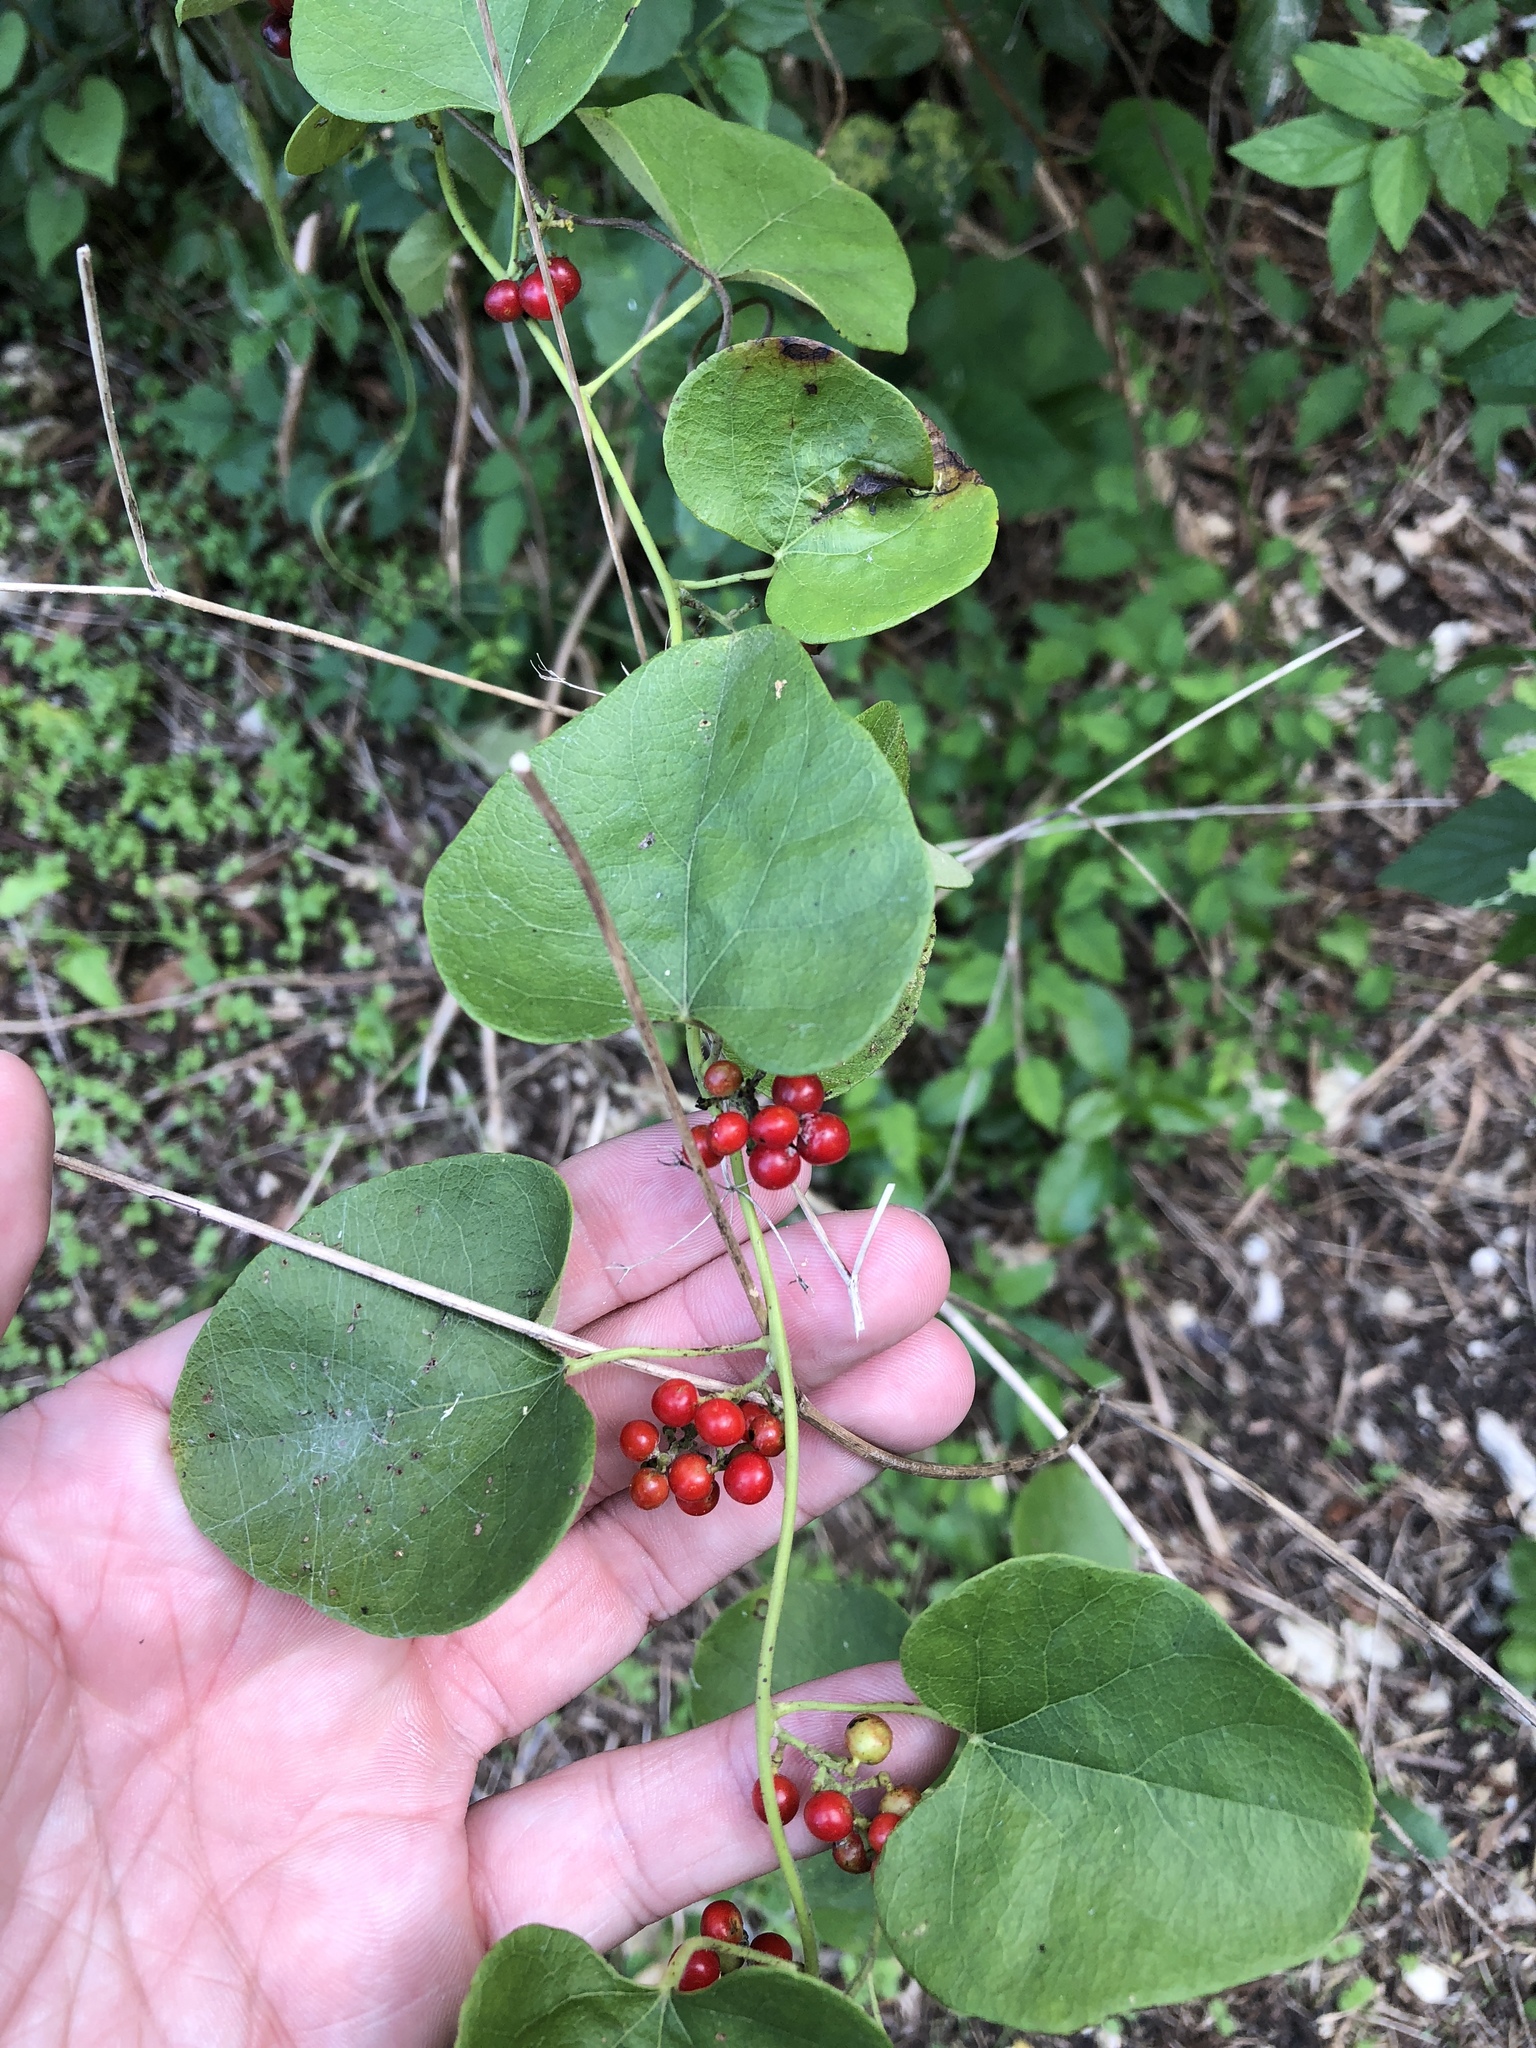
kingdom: Plantae
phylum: Tracheophyta
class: Magnoliopsida
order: Ranunculales
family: Menispermaceae
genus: Cocculus
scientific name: Cocculus carolinus
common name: Carolina moonseed
